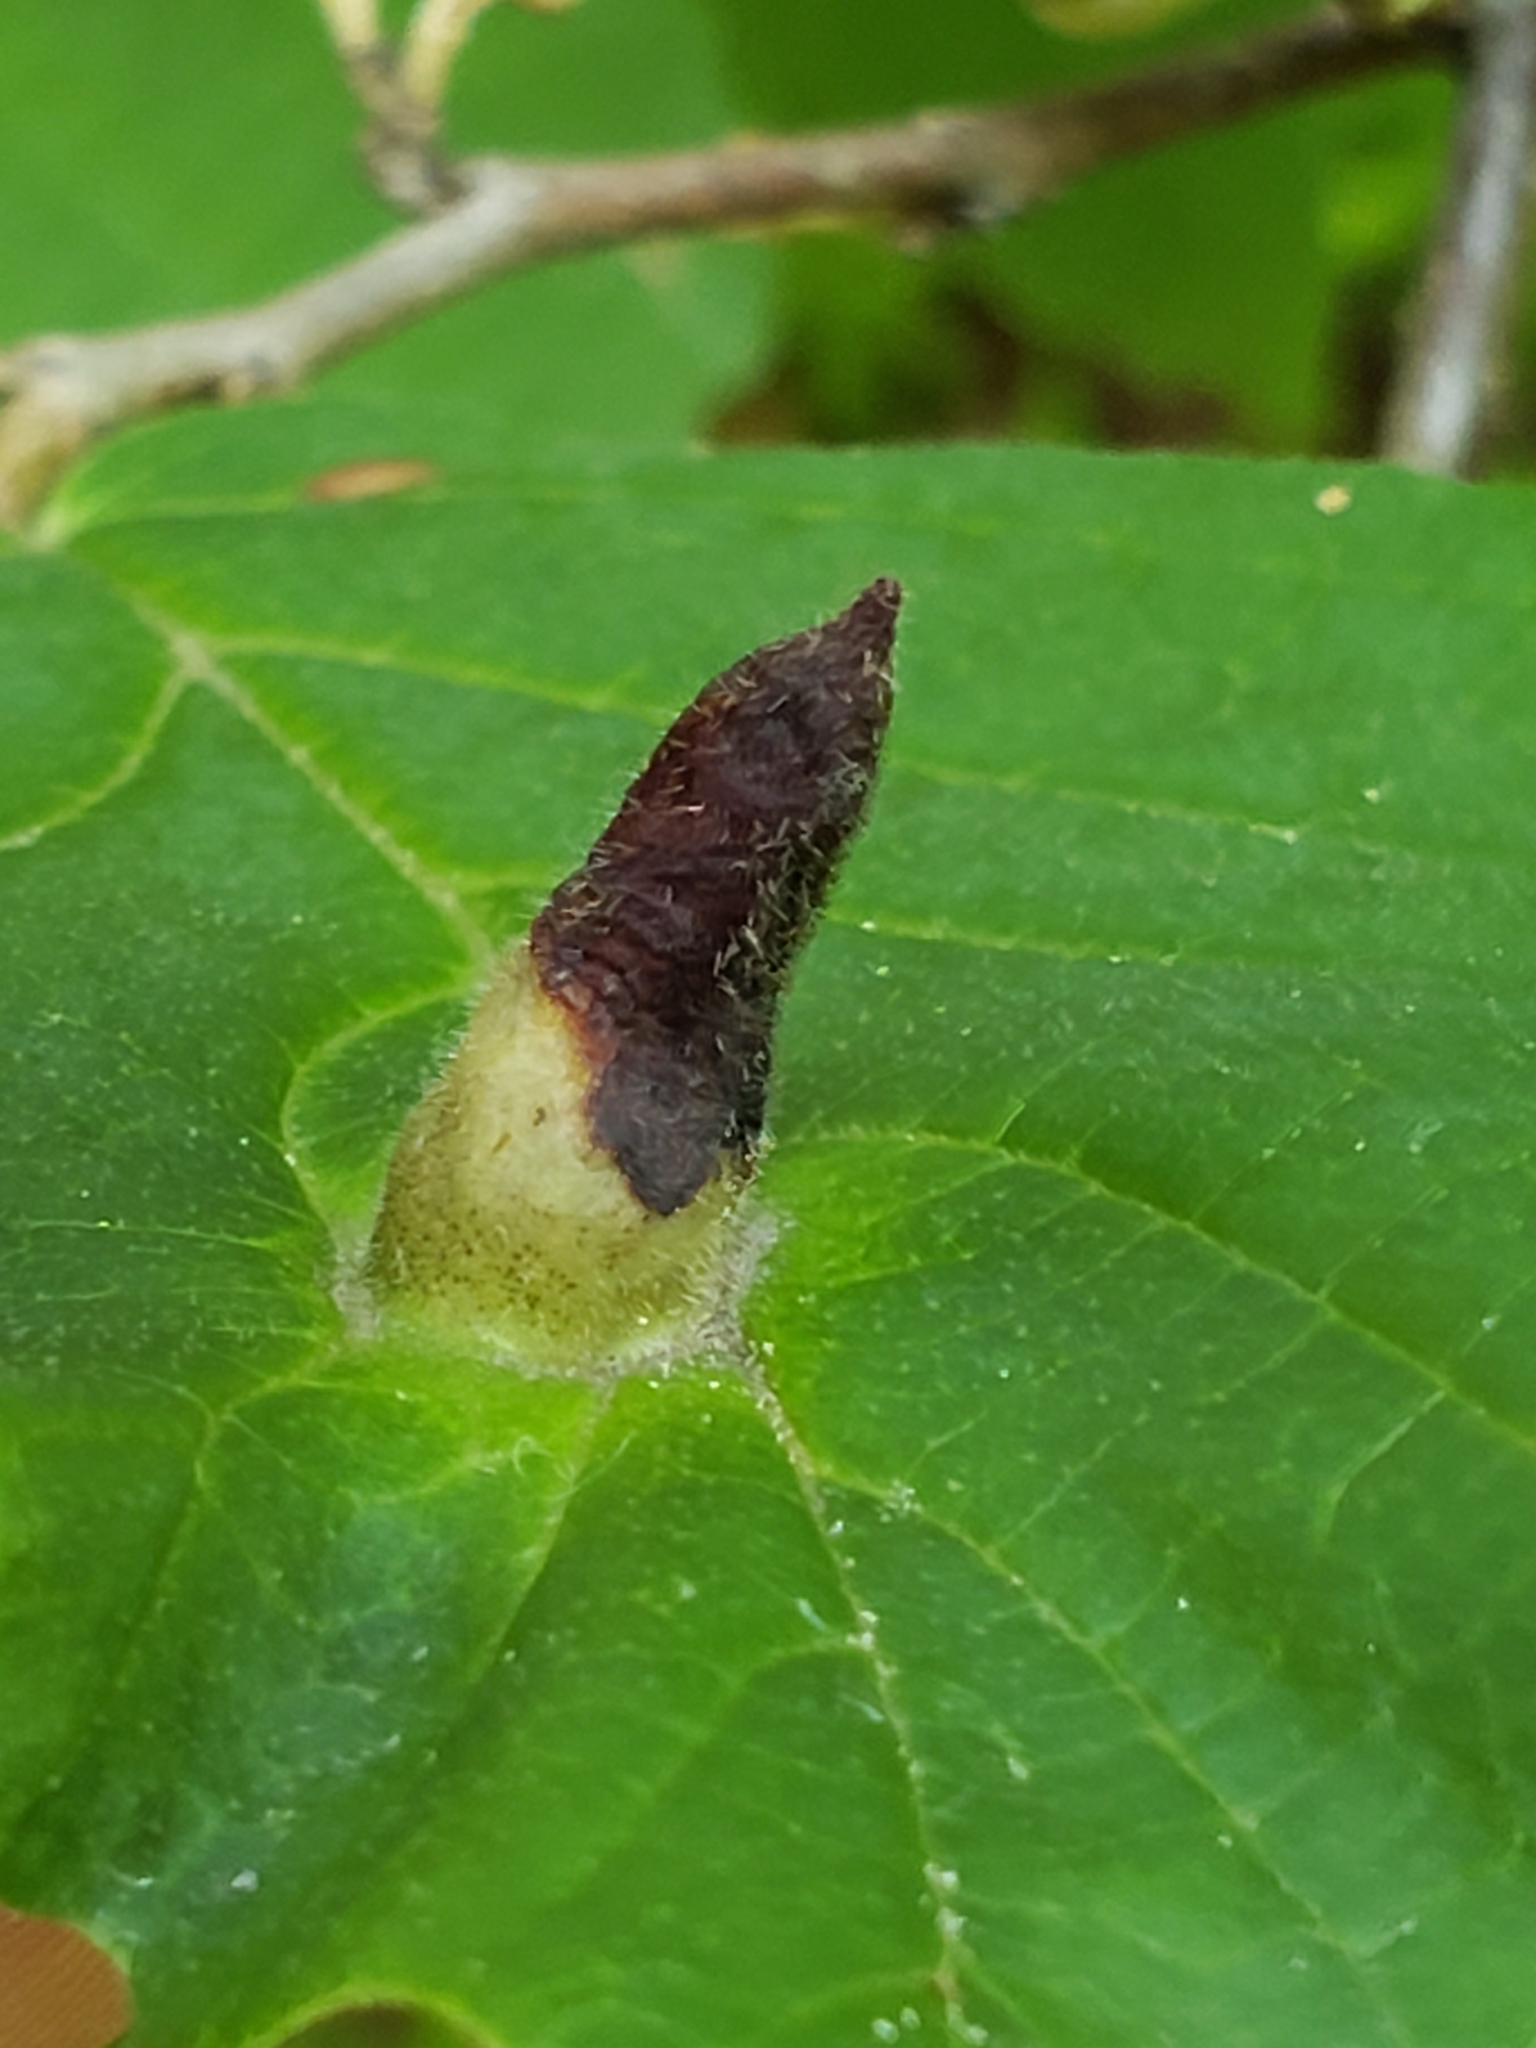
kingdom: Animalia
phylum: Arthropoda
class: Insecta
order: Hemiptera
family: Aphididae
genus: Hormaphis
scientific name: Hormaphis hamamelidis
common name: Witch-hazel cone gall aphid
